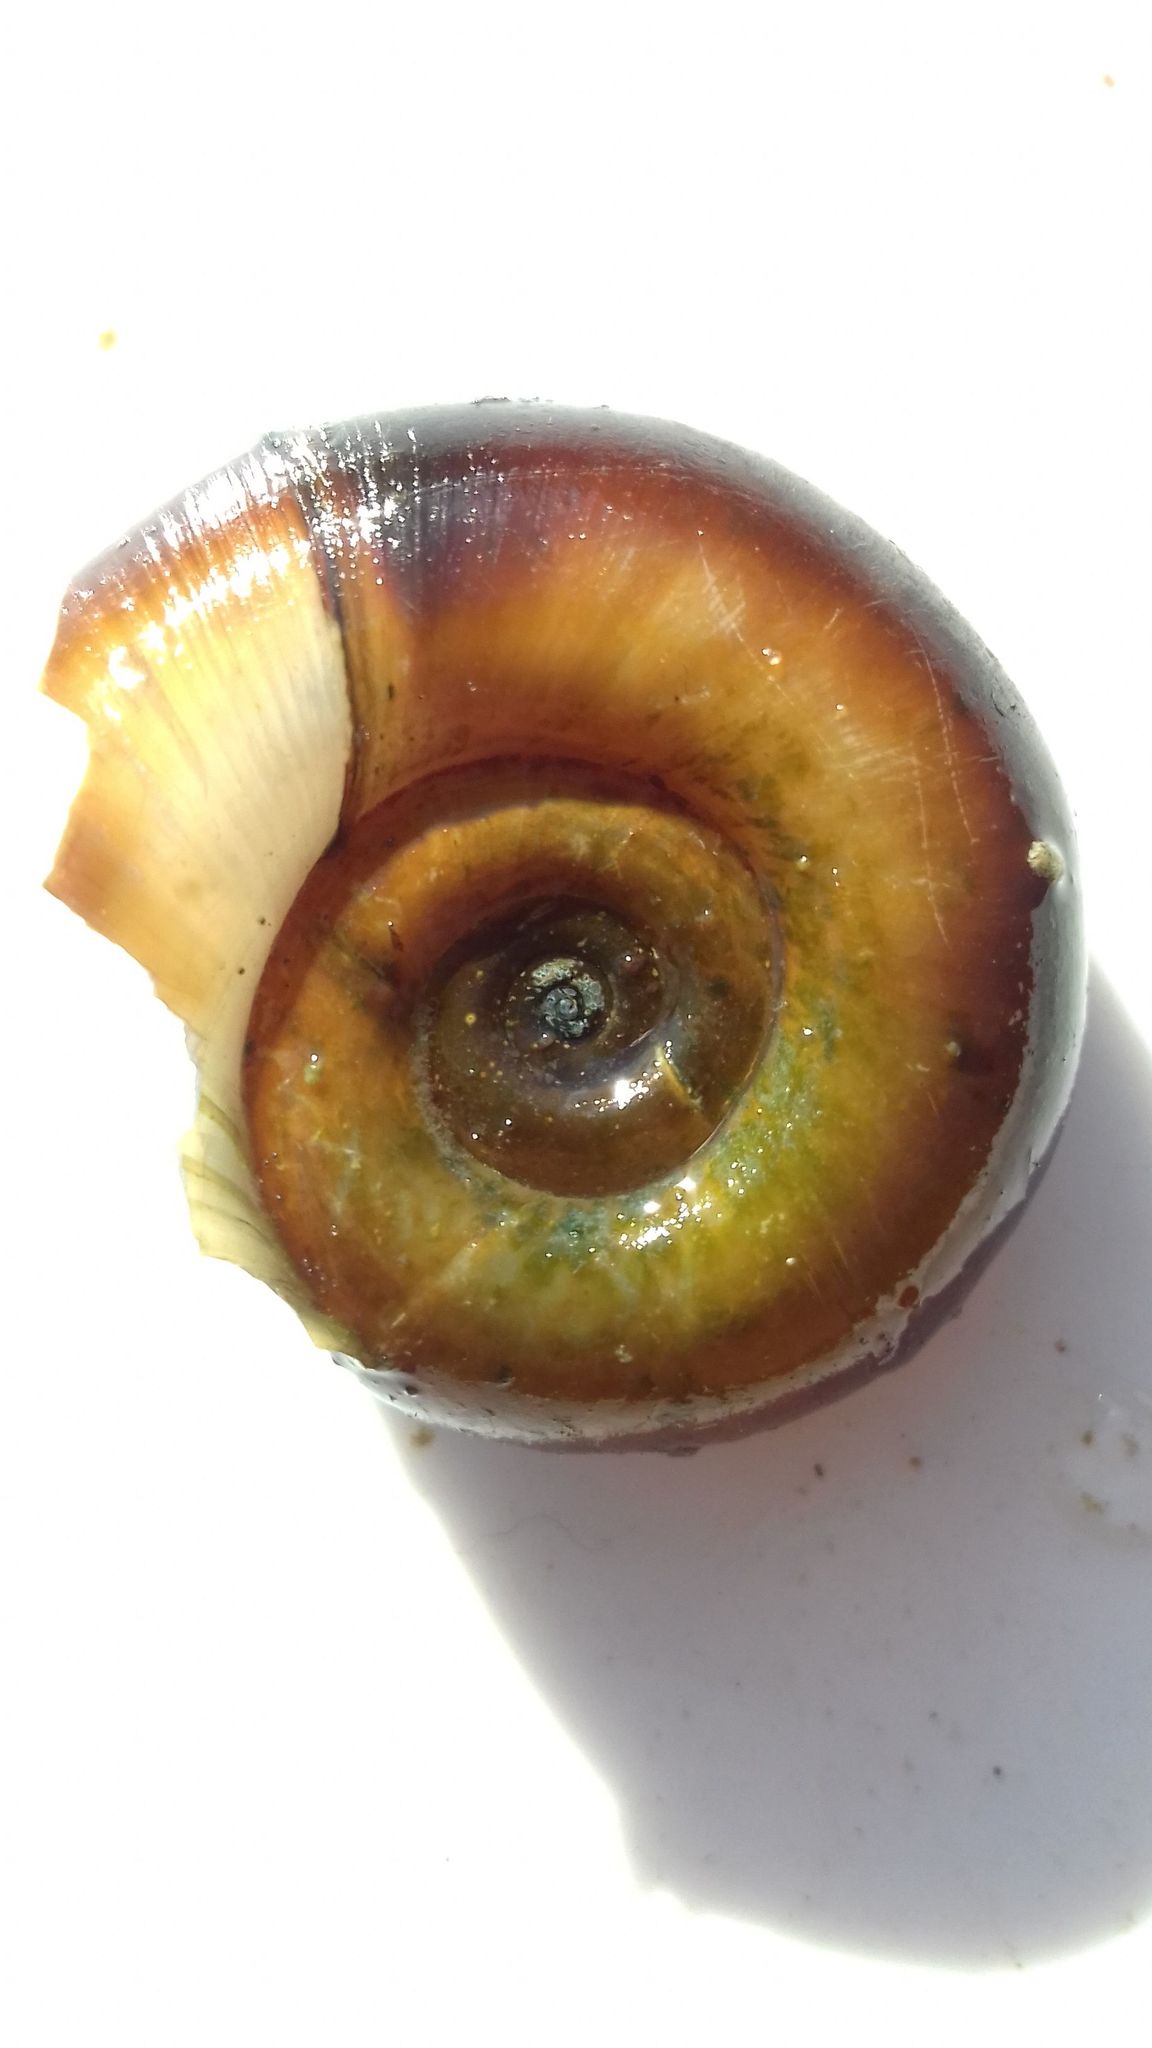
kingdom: Animalia
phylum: Mollusca
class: Gastropoda
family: Planorbidae
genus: Planorbarius
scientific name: Planorbarius corneus
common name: Great ramshorn
